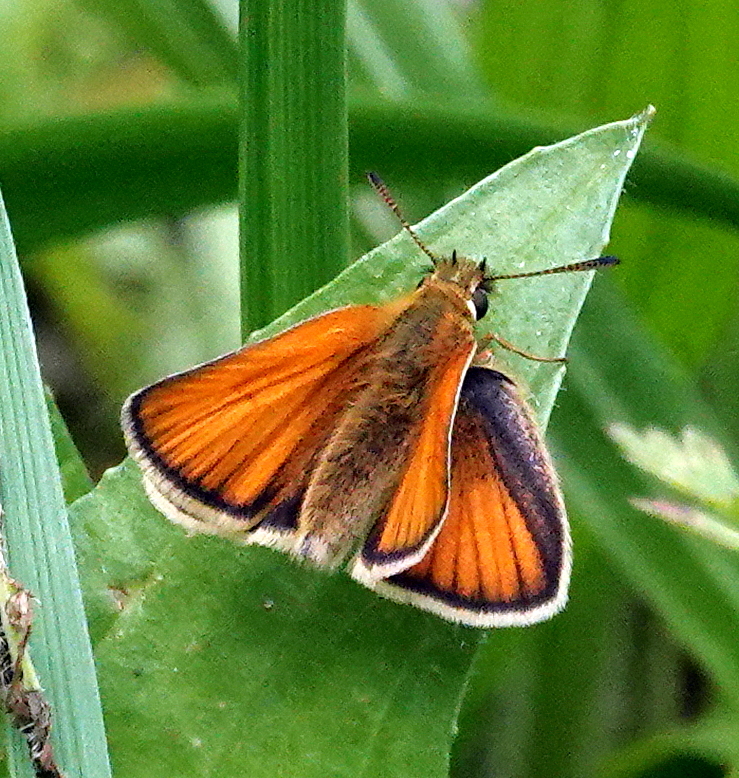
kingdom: Animalia
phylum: Arthropoda
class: Insecta
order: Lepidoptera
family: Hesperiidae
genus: Thymelicus
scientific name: Thymelicus lineola
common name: Essex skipper
